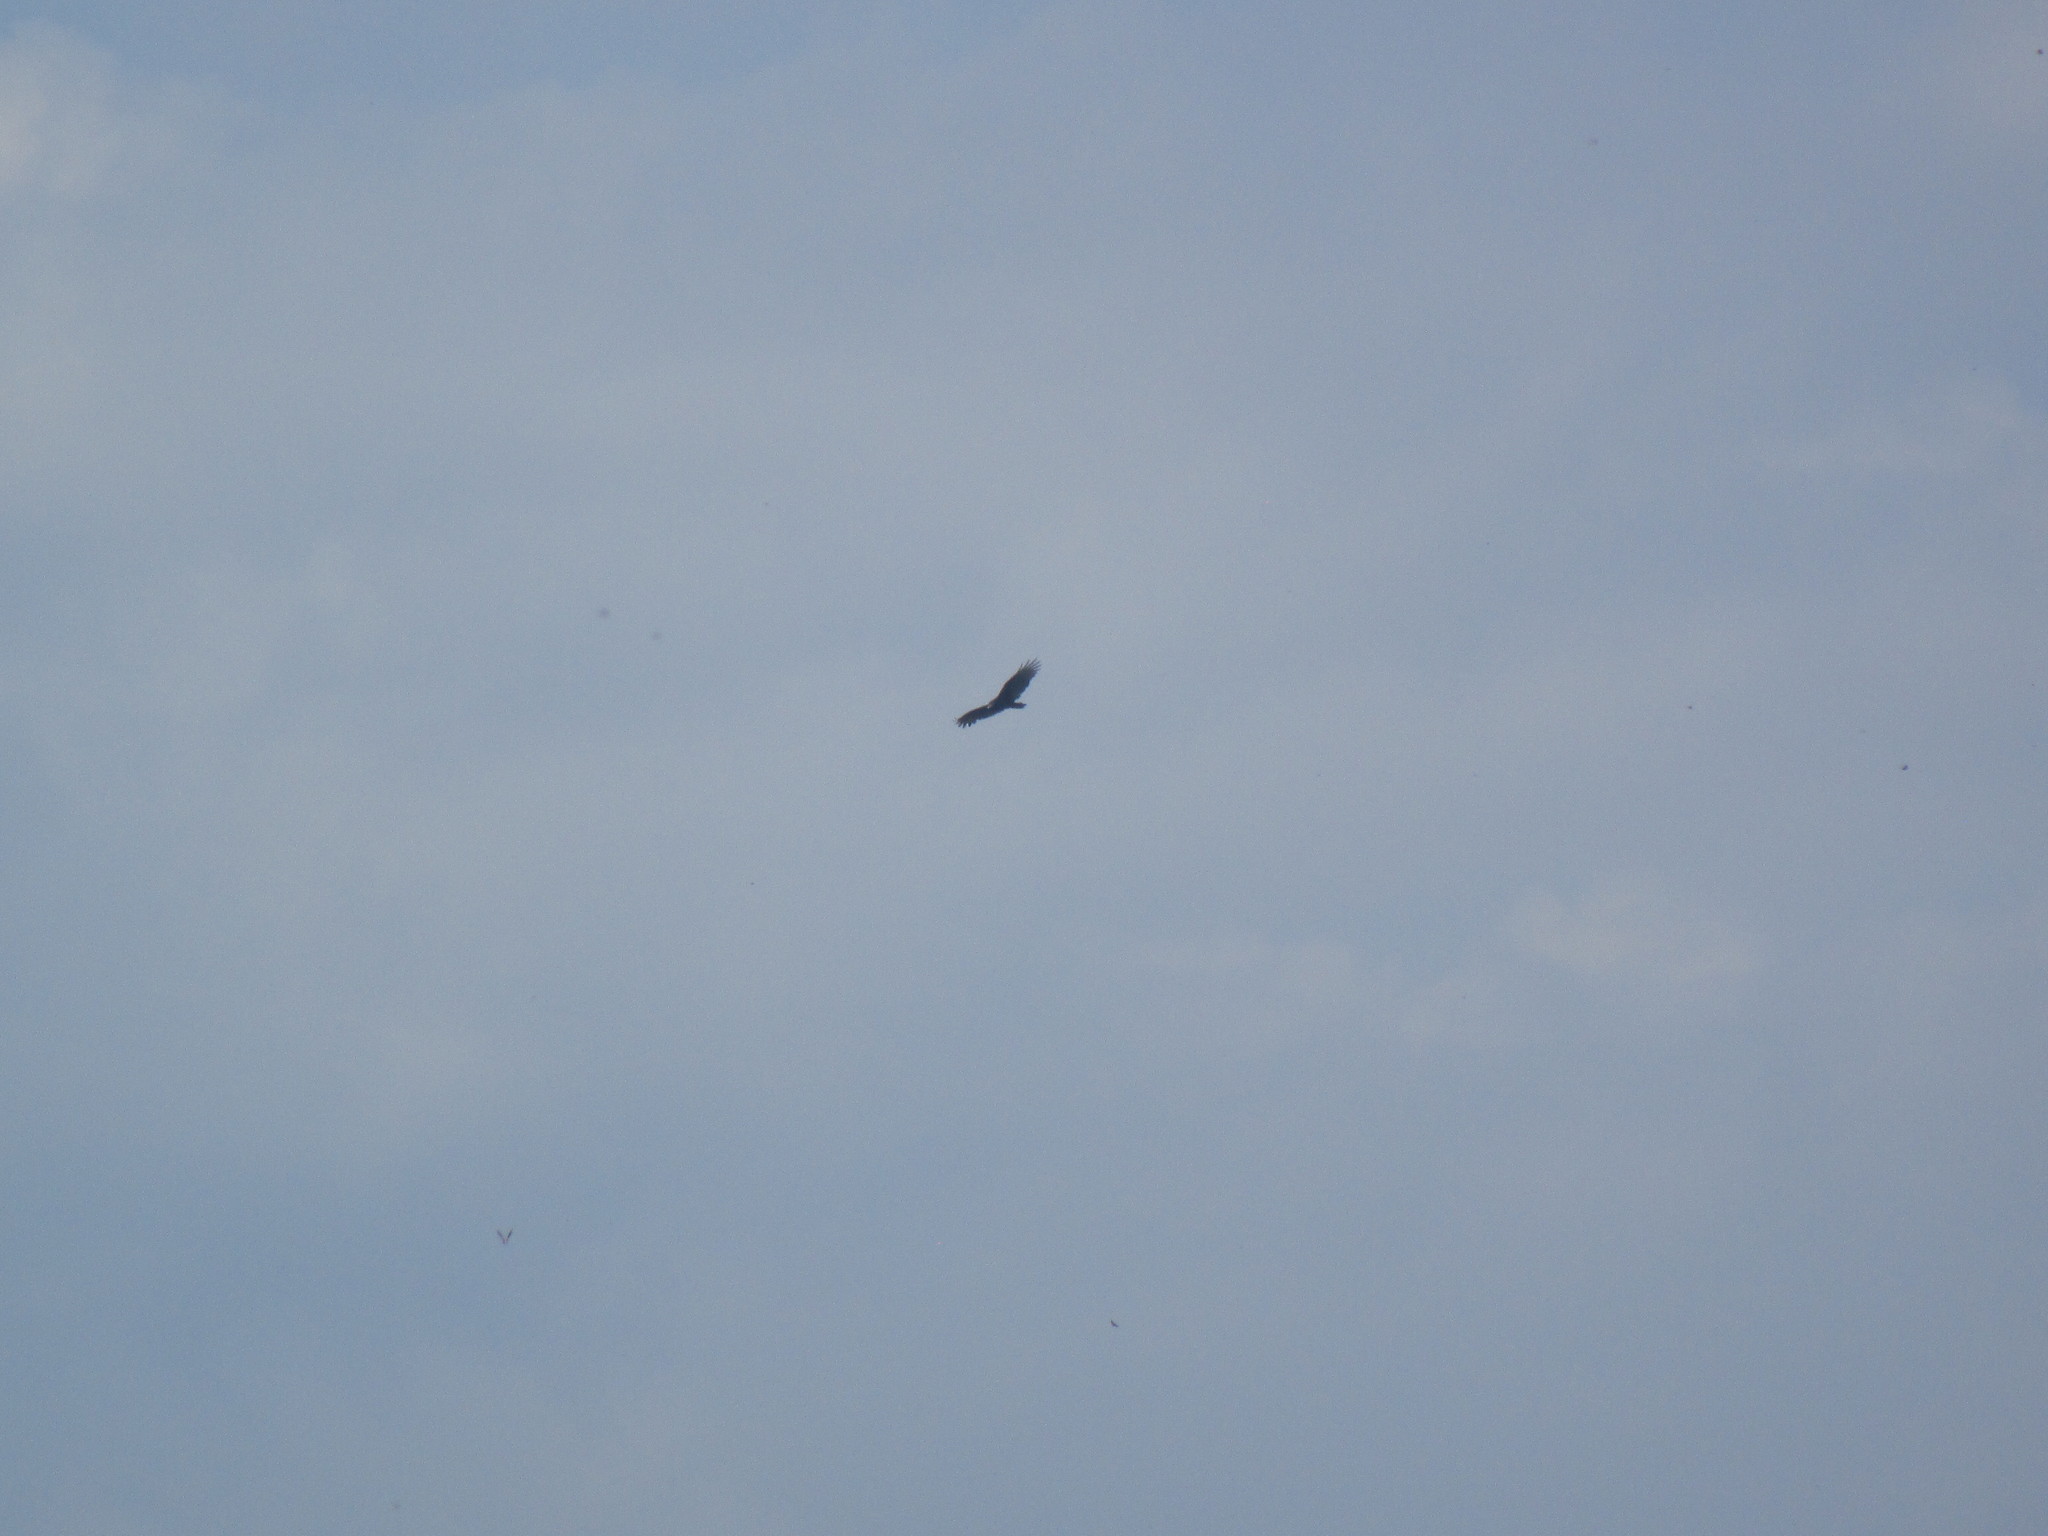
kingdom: Animalia
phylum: Chordata
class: Aves
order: Accipitriformes
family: Cathartidae
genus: Cathartes
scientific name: Cathartes aura
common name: Turkey vulture
